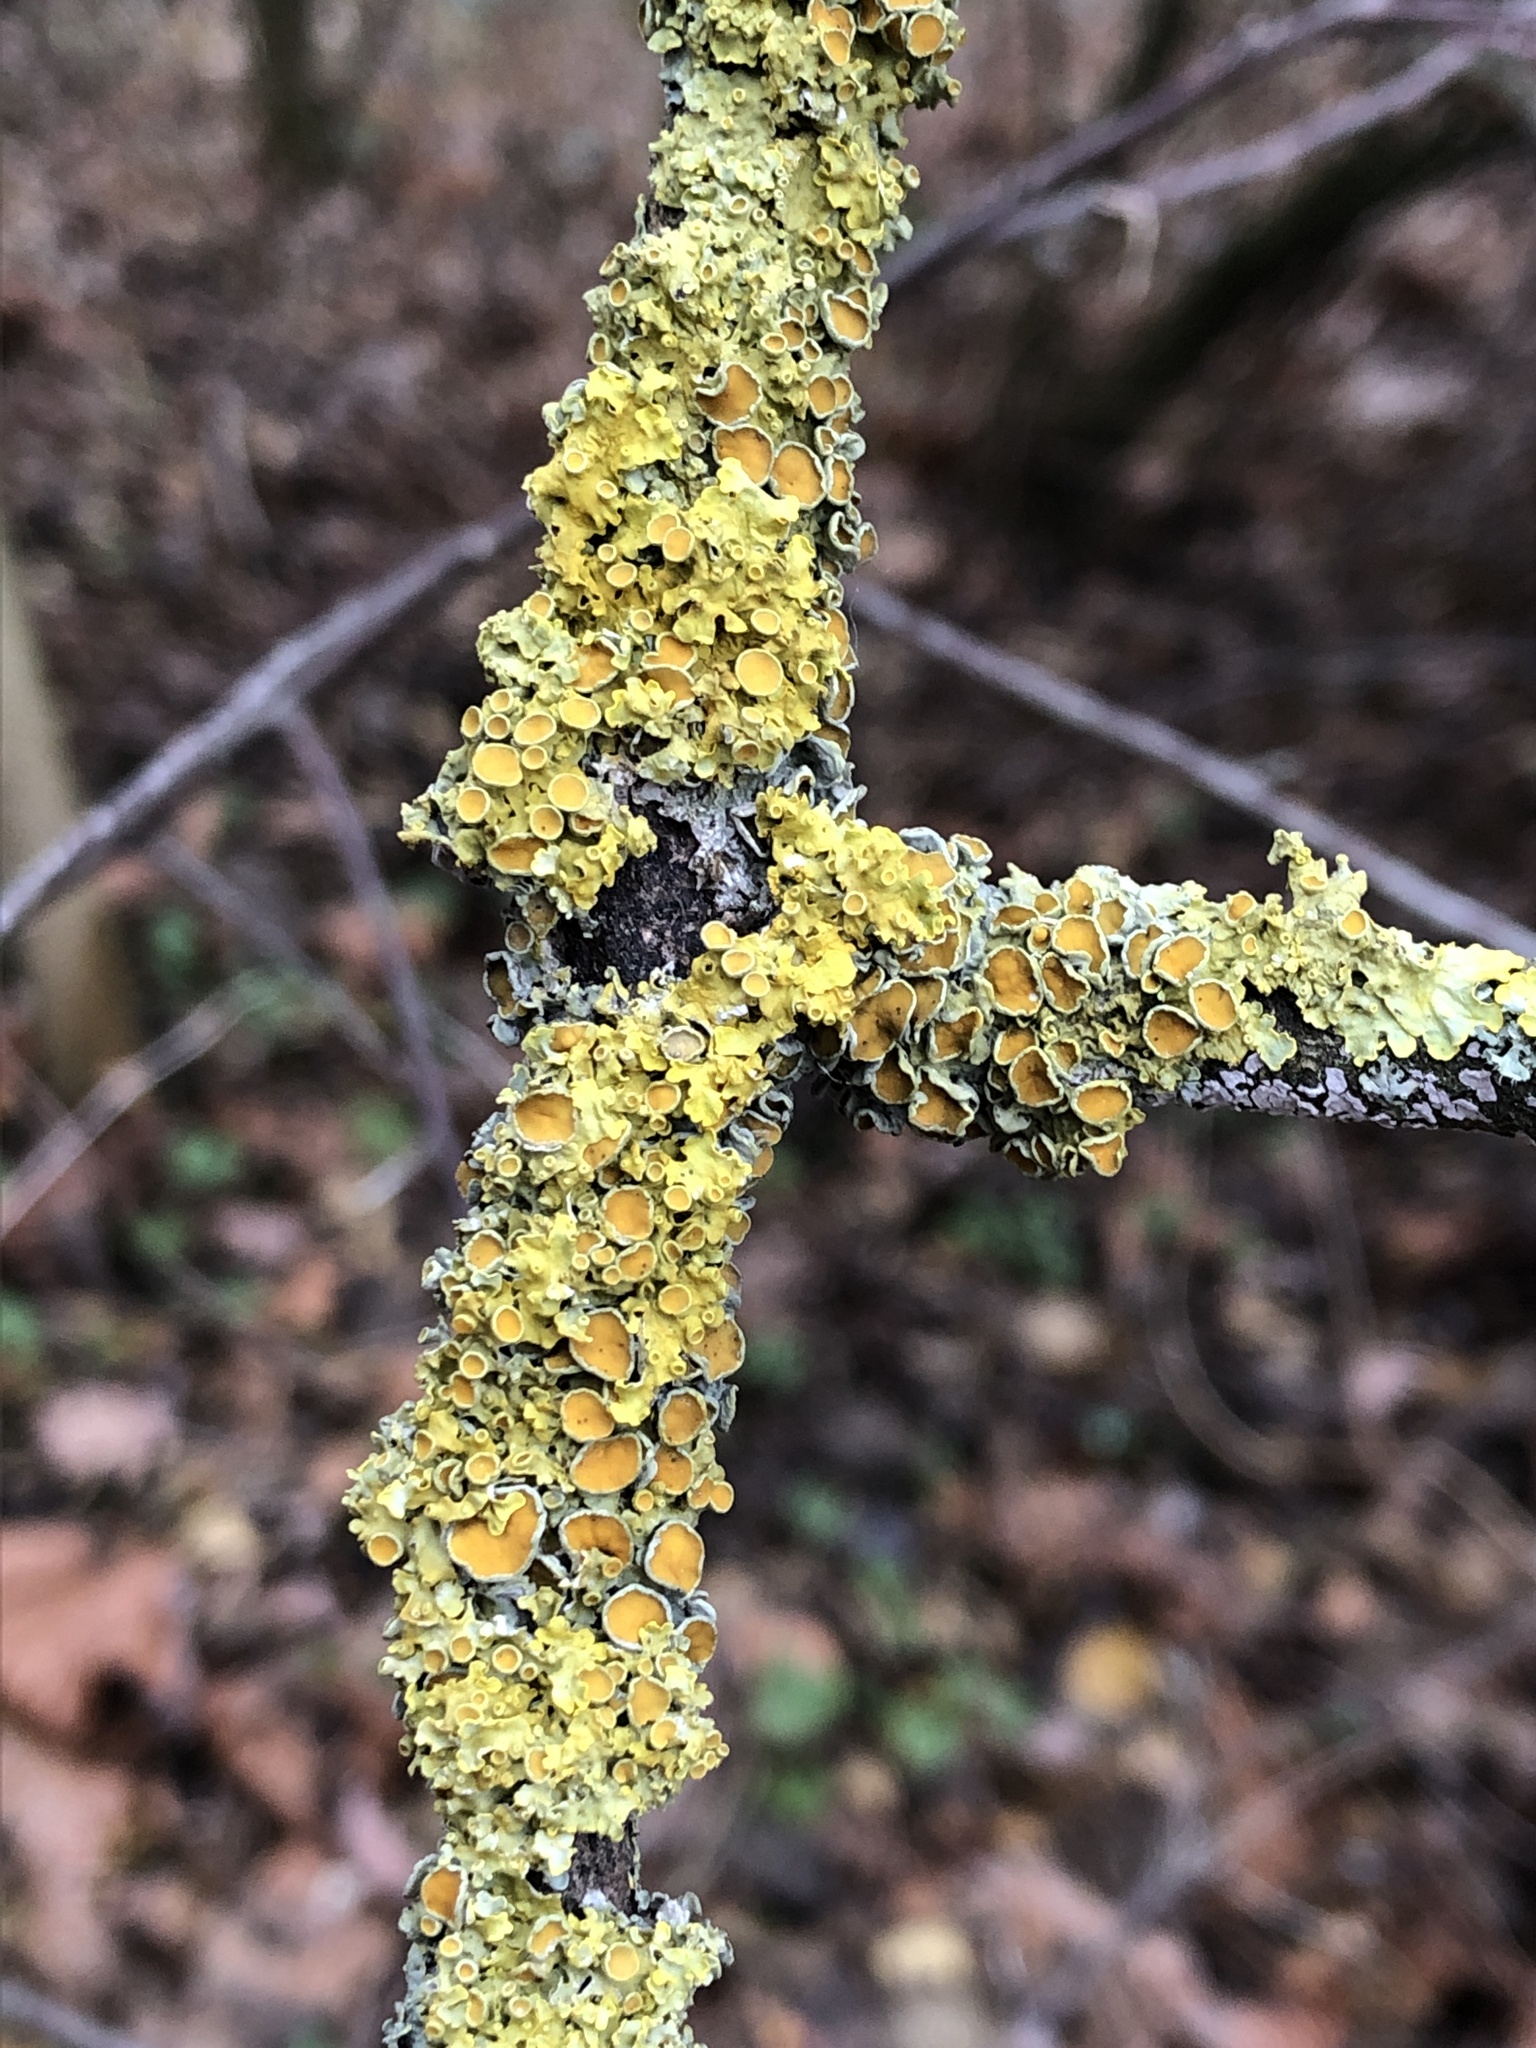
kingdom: Fungi
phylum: Ascomycota
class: Lecanoromycetes
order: Teloschistales
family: Teloschistaceae
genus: Xanthoria
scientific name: Xanthoria parietina
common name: Common orange lichen
